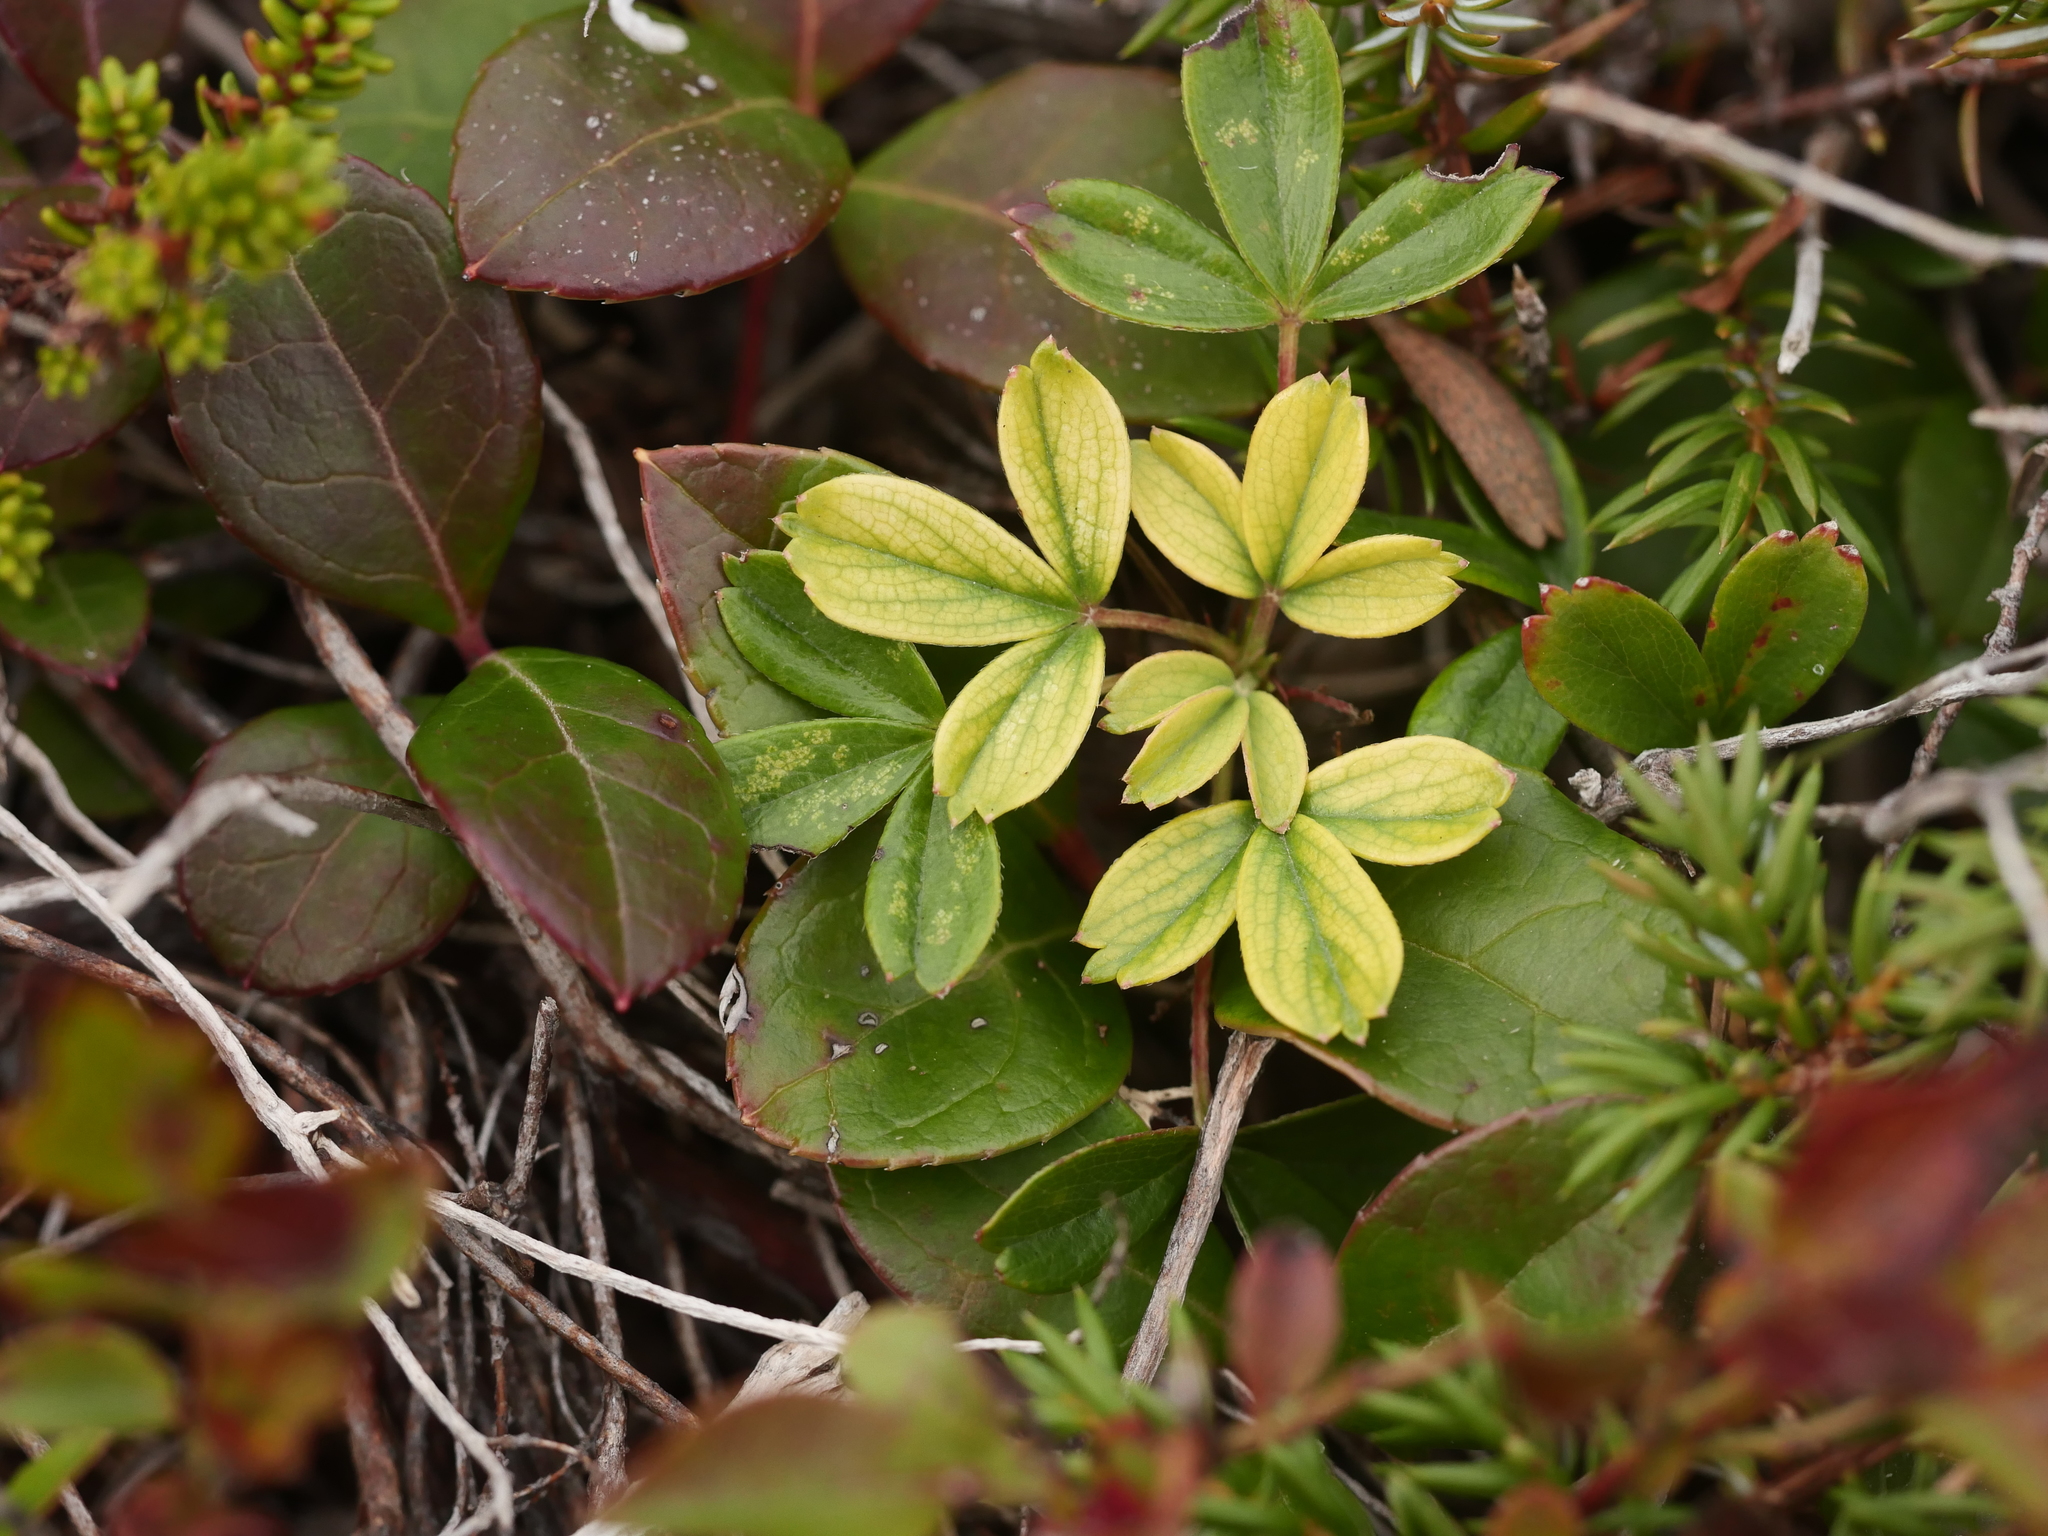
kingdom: Plantae
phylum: Tracheophyta
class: Magnoliopsida
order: Rosales
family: Rosaceae
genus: Sibbaldia
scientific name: Sibbaldia tridentata
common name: Three-toothed cinquefoil
